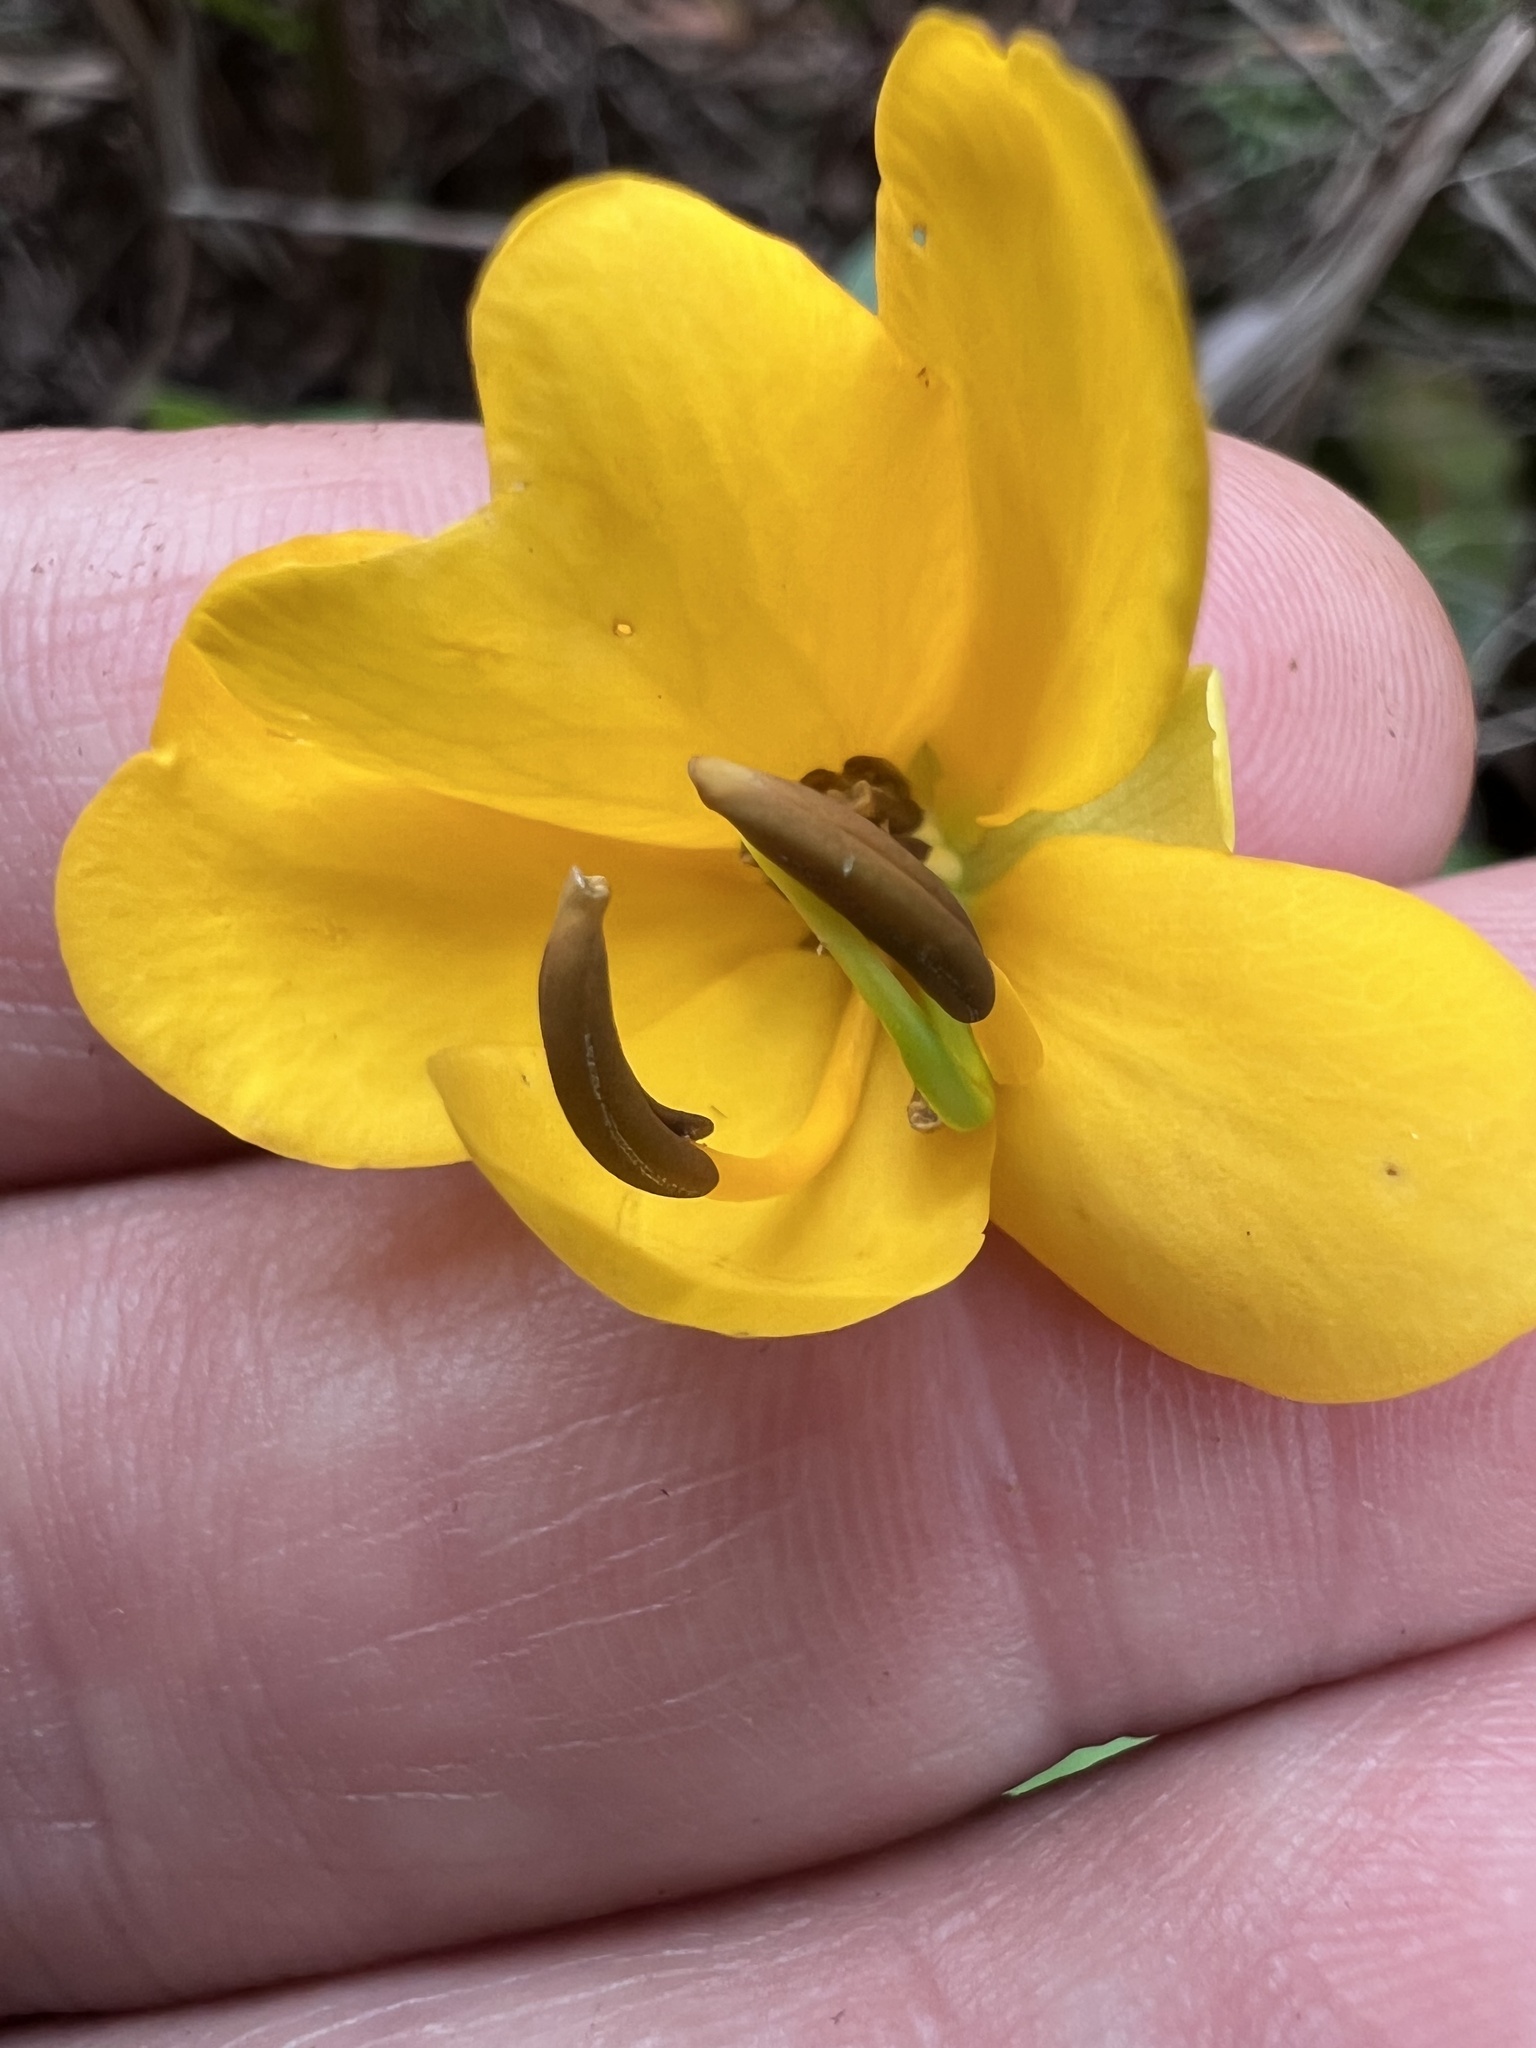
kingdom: Plantae
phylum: Tracheophyta
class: Magnoliopsida
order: Fabales
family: Fabaceae
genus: Senna
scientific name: Senna septemtrionalis
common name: Arsenic bush
